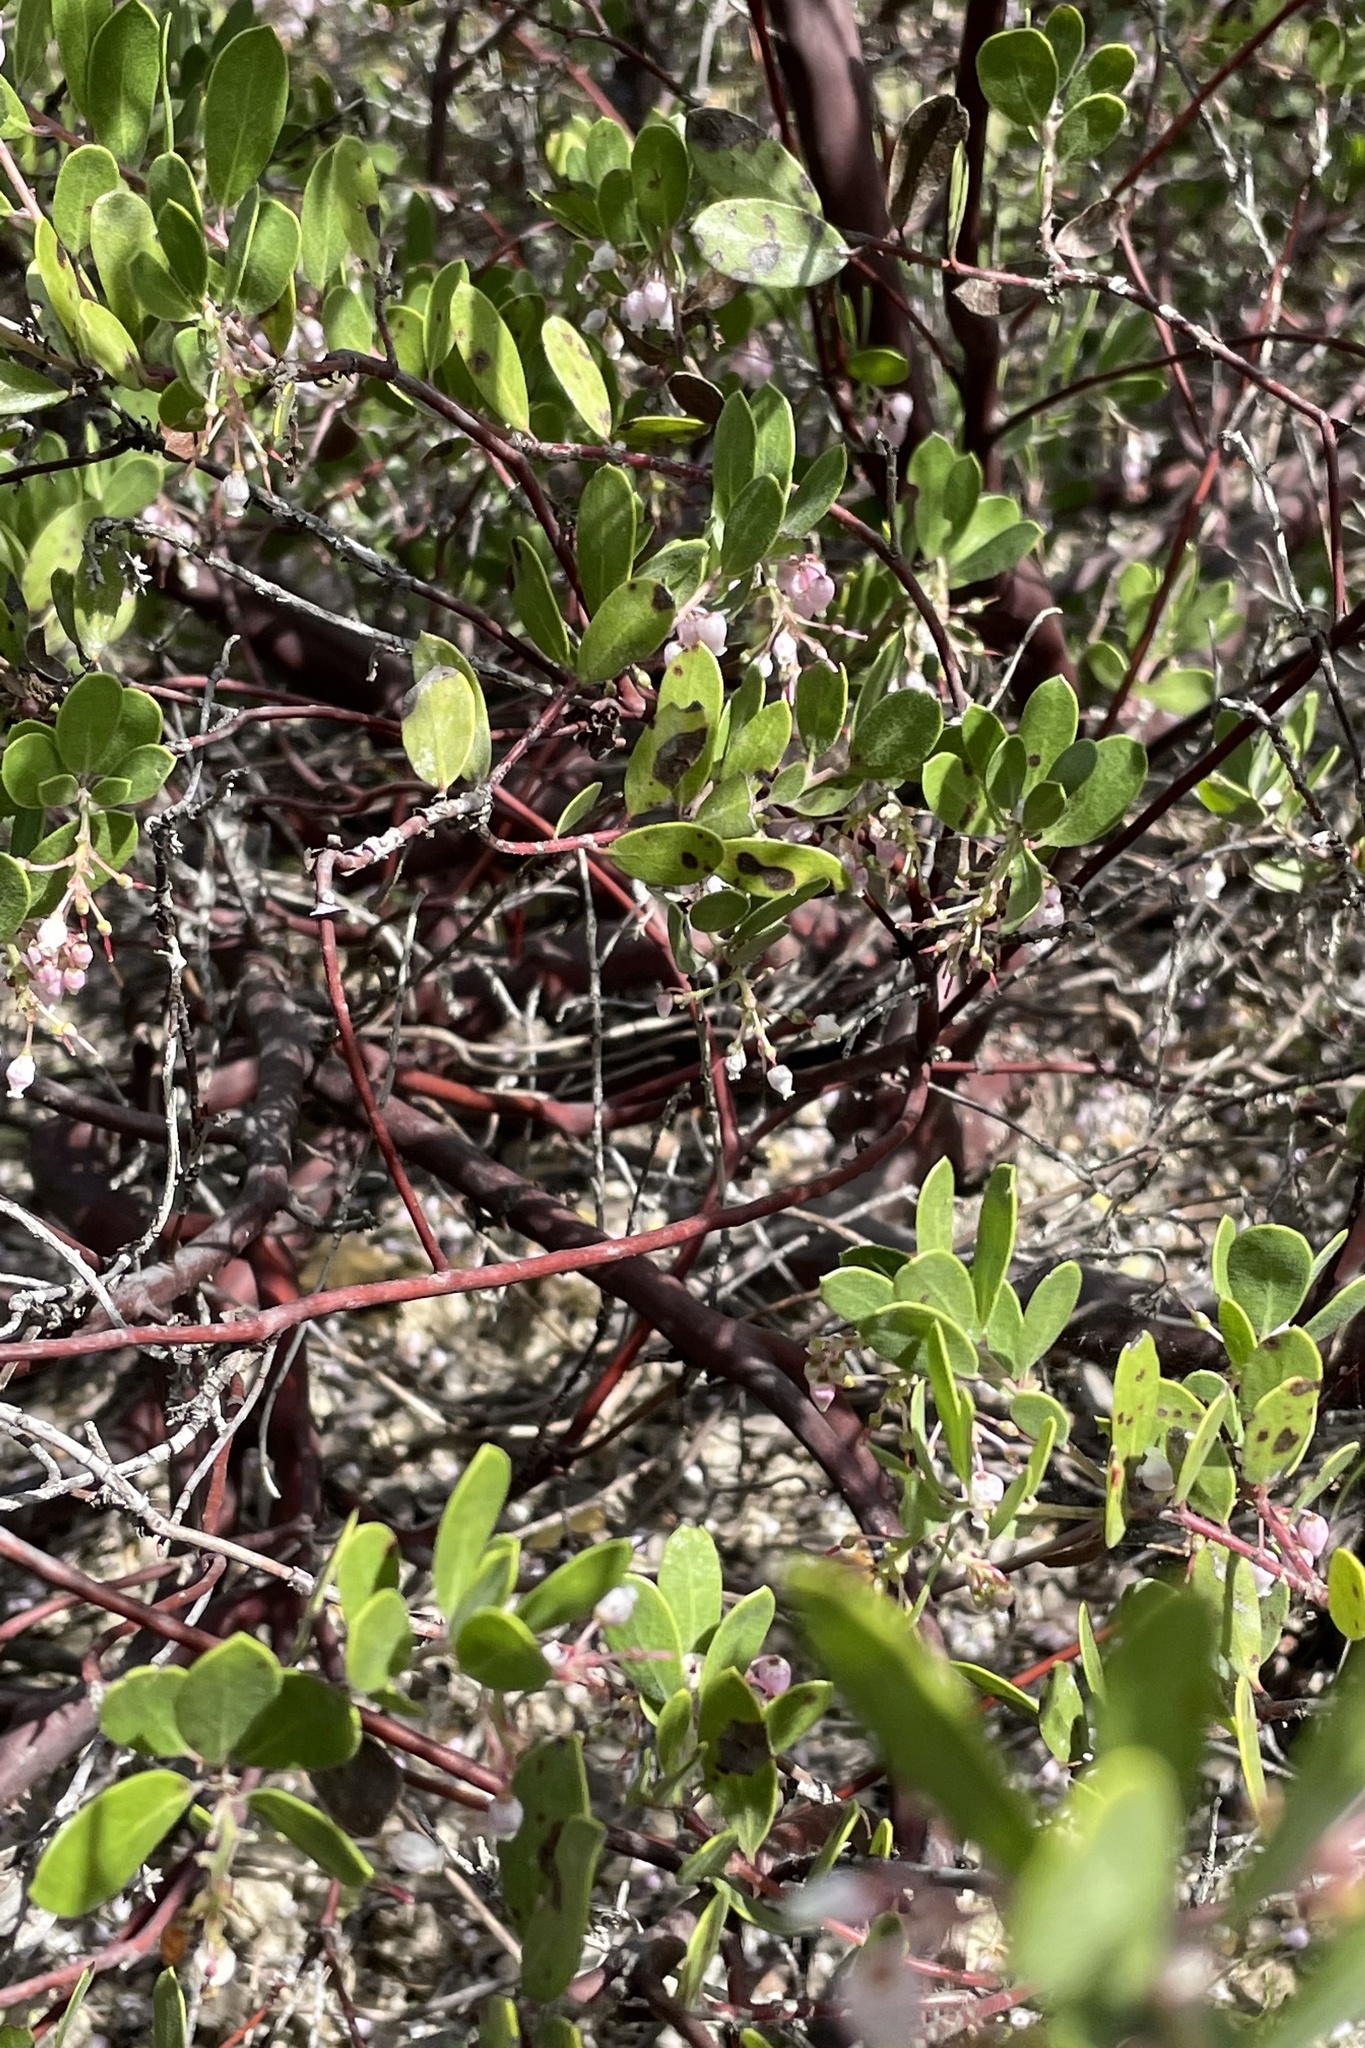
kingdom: Plantae
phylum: Tracheophyta
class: Magnoliopsida
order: Ericales
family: Ericaceae
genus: Arctostaphylos
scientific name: Arctostaphylos densiflora
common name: Vine hill manzanita
